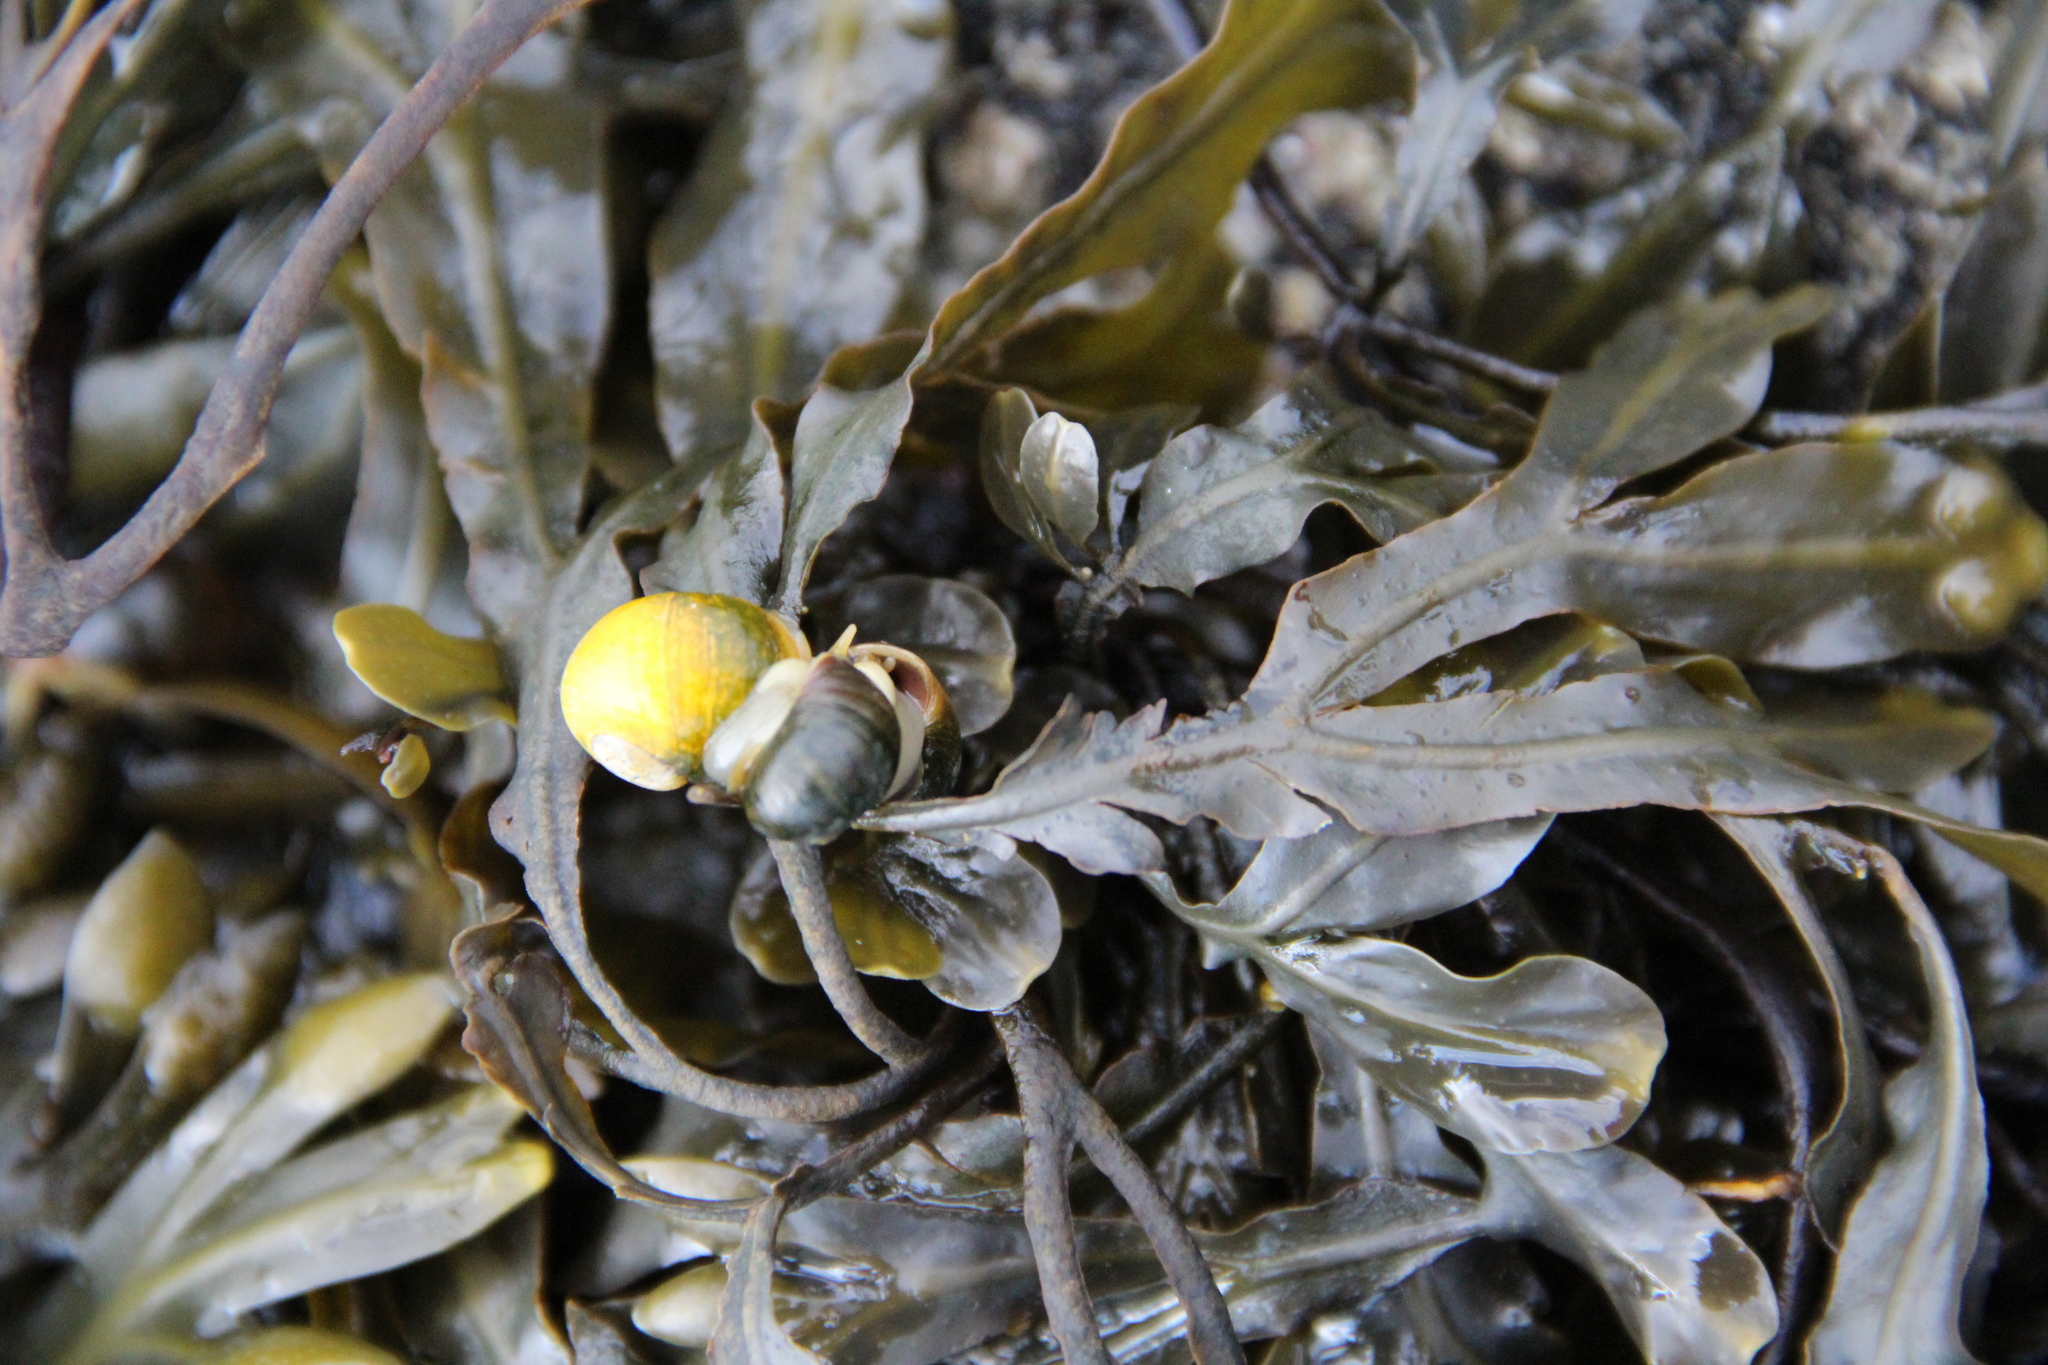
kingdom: Animalia
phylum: Mollusca
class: Gastropoda
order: Littorinimorpha
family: Littorinidae
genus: Littorina
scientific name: Littorina obtusata
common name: Flat periwinkle
